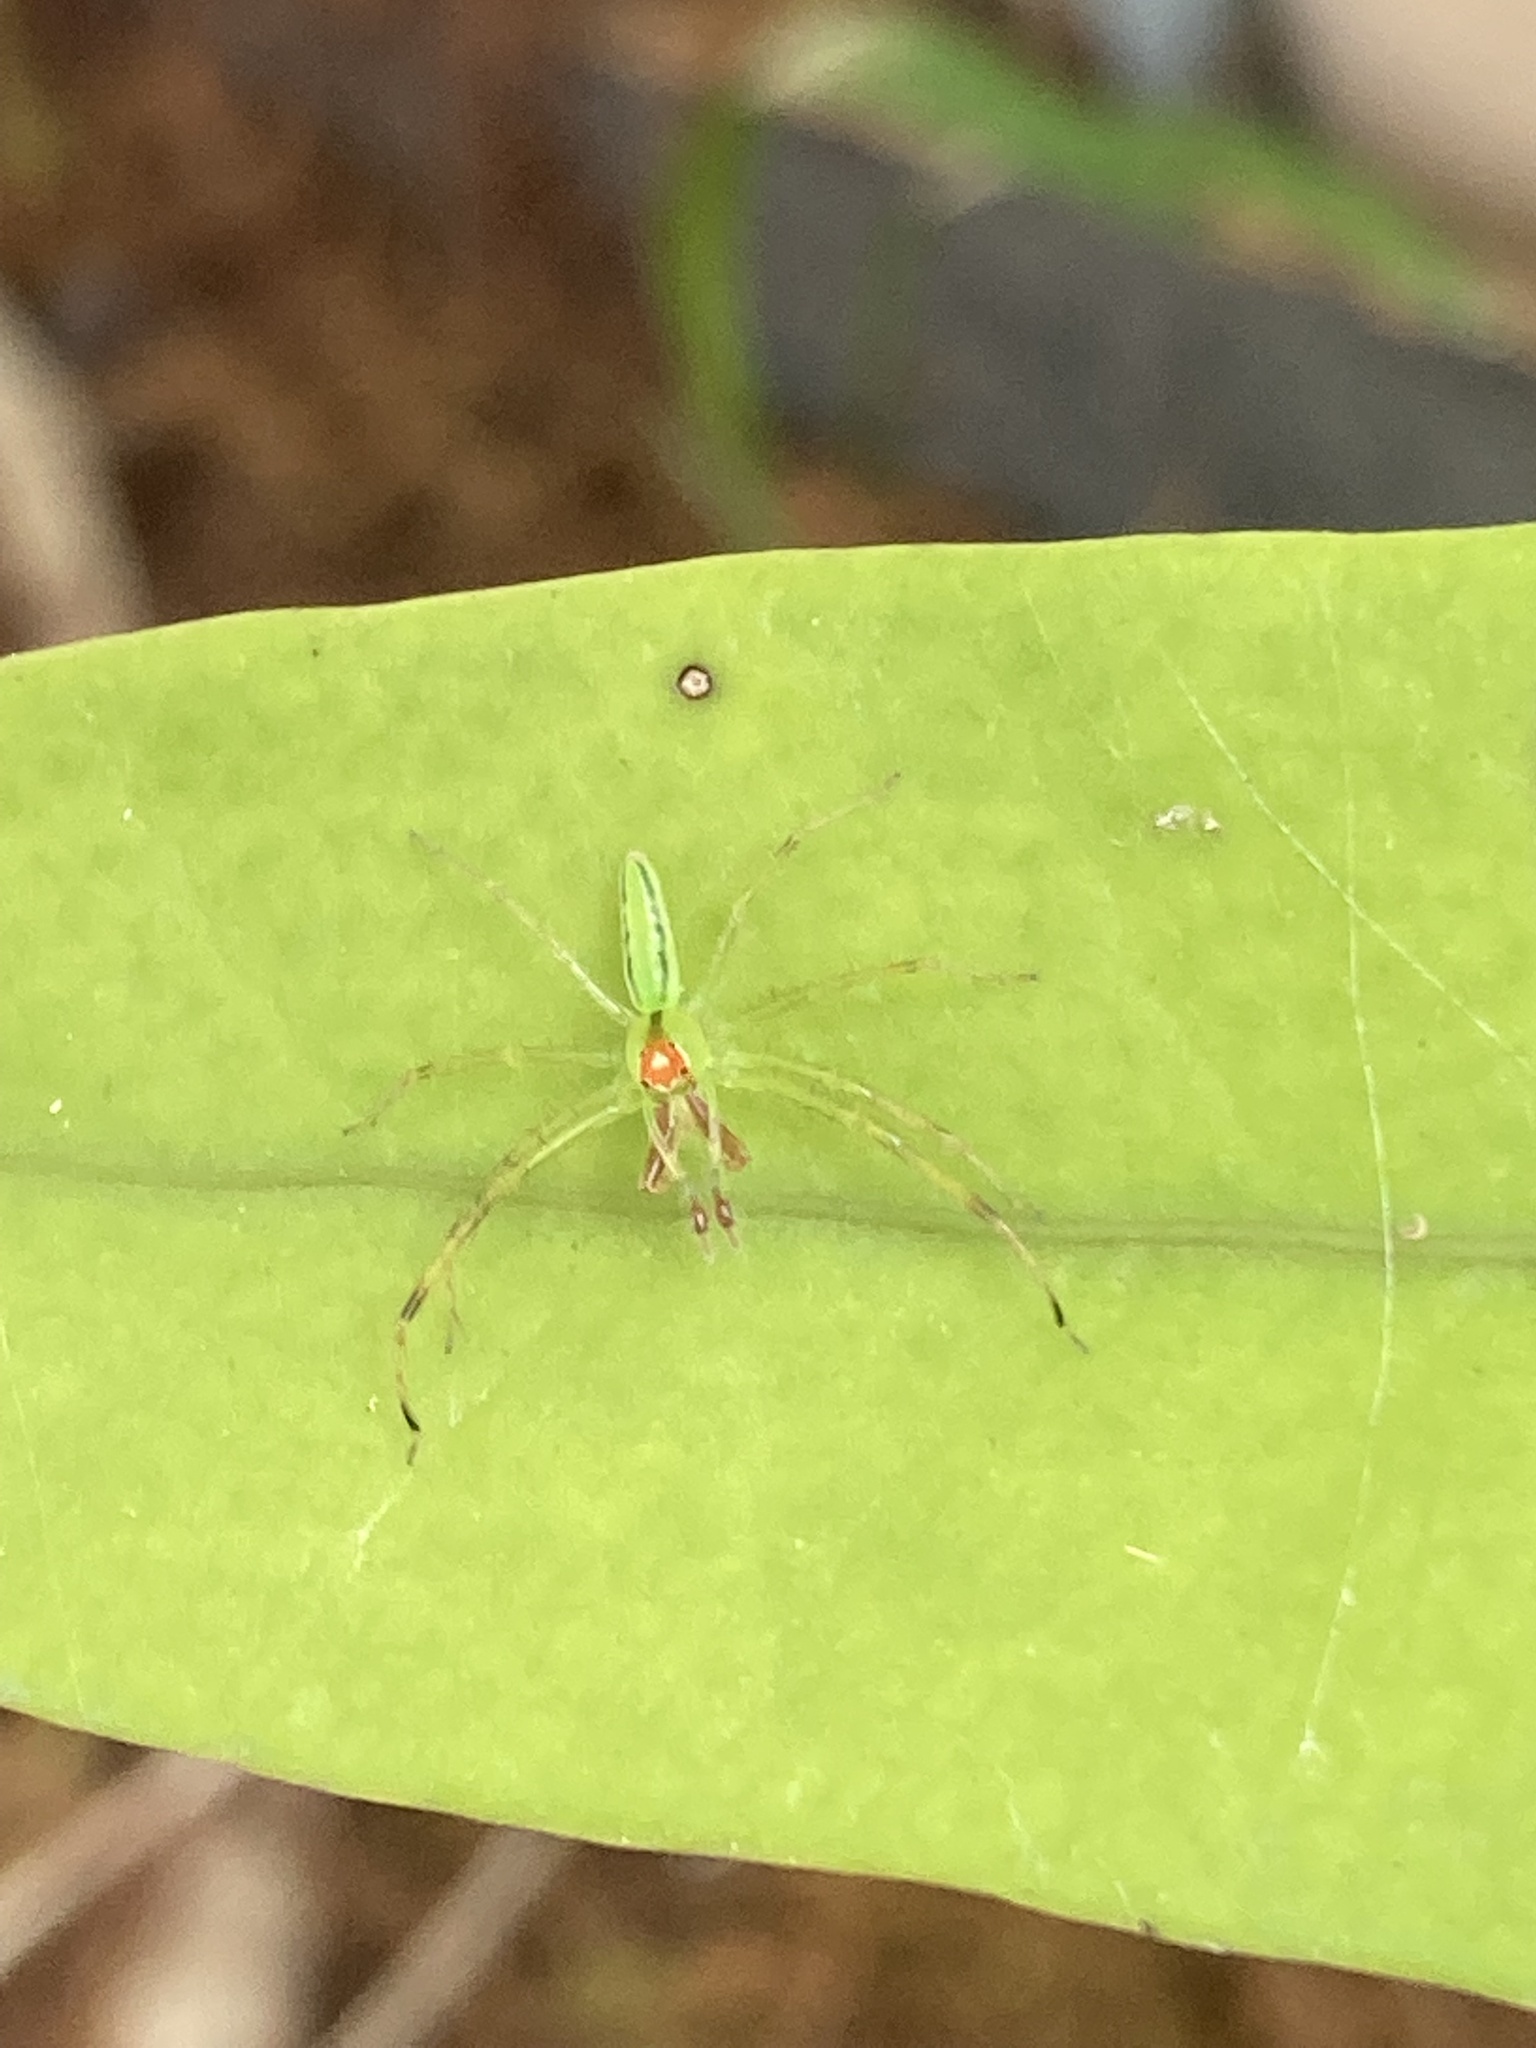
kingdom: Animalia
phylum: Arthropoda
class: Arachnida
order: Araneae
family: Salticidae
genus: Lyssomanes
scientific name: Lyssomanes viridis
